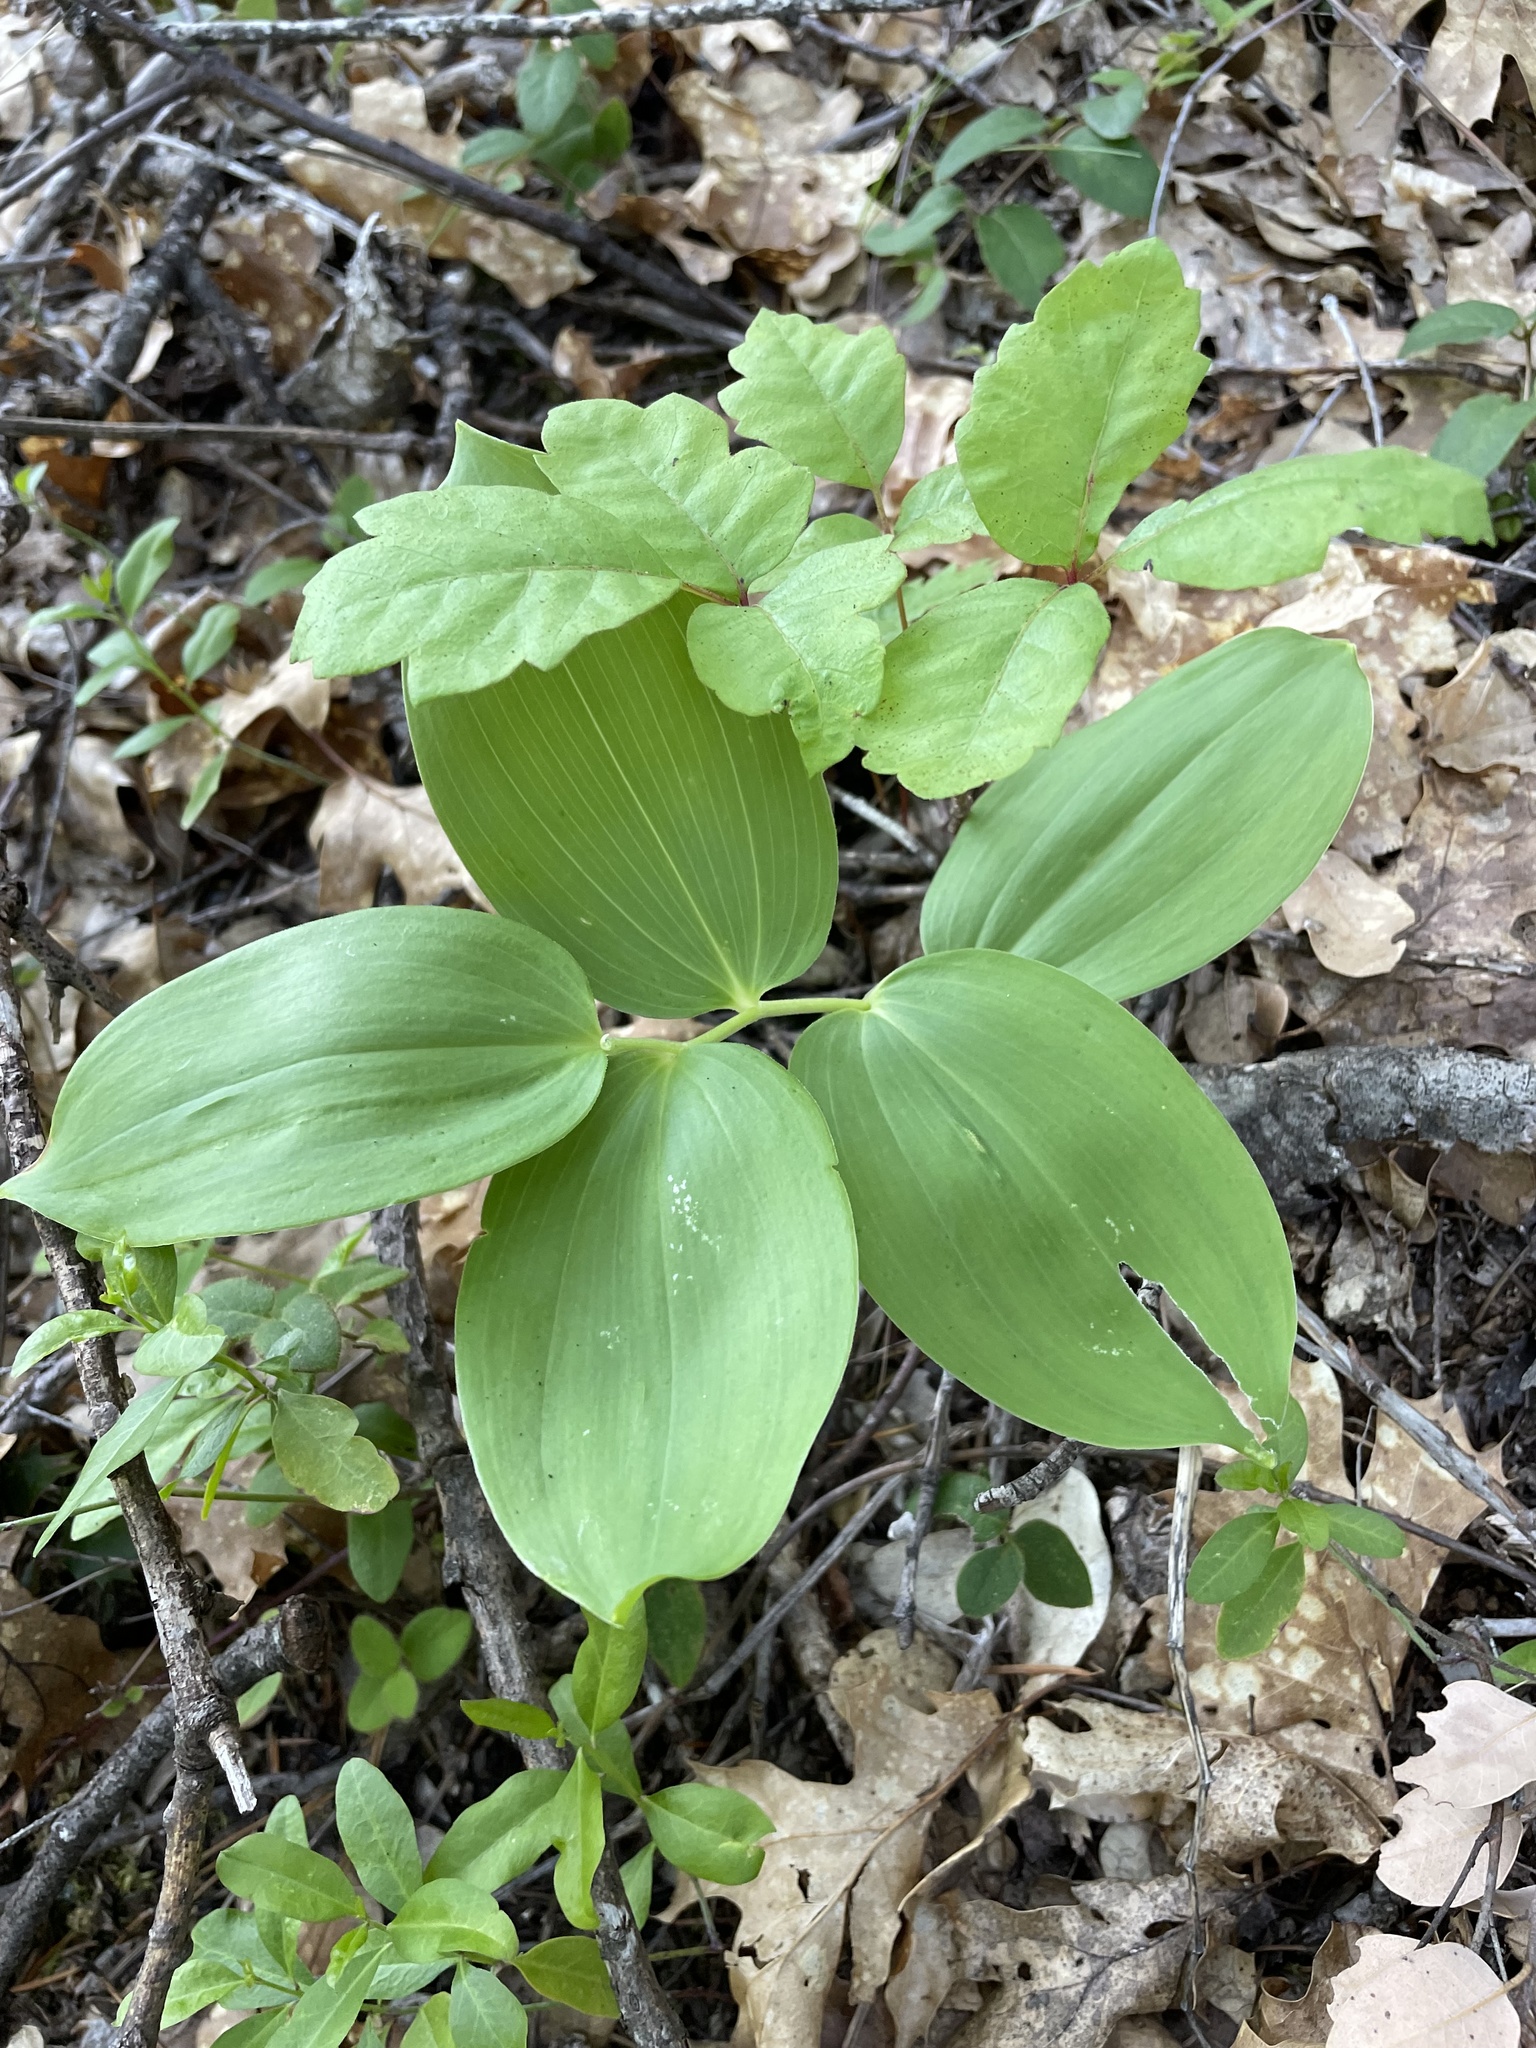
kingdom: Plantae
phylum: Tracheophyta
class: Liliopsida
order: Asparagales
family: Asparagaceae
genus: Maianthemum
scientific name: Maianthemum racemosum
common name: False spikenard
